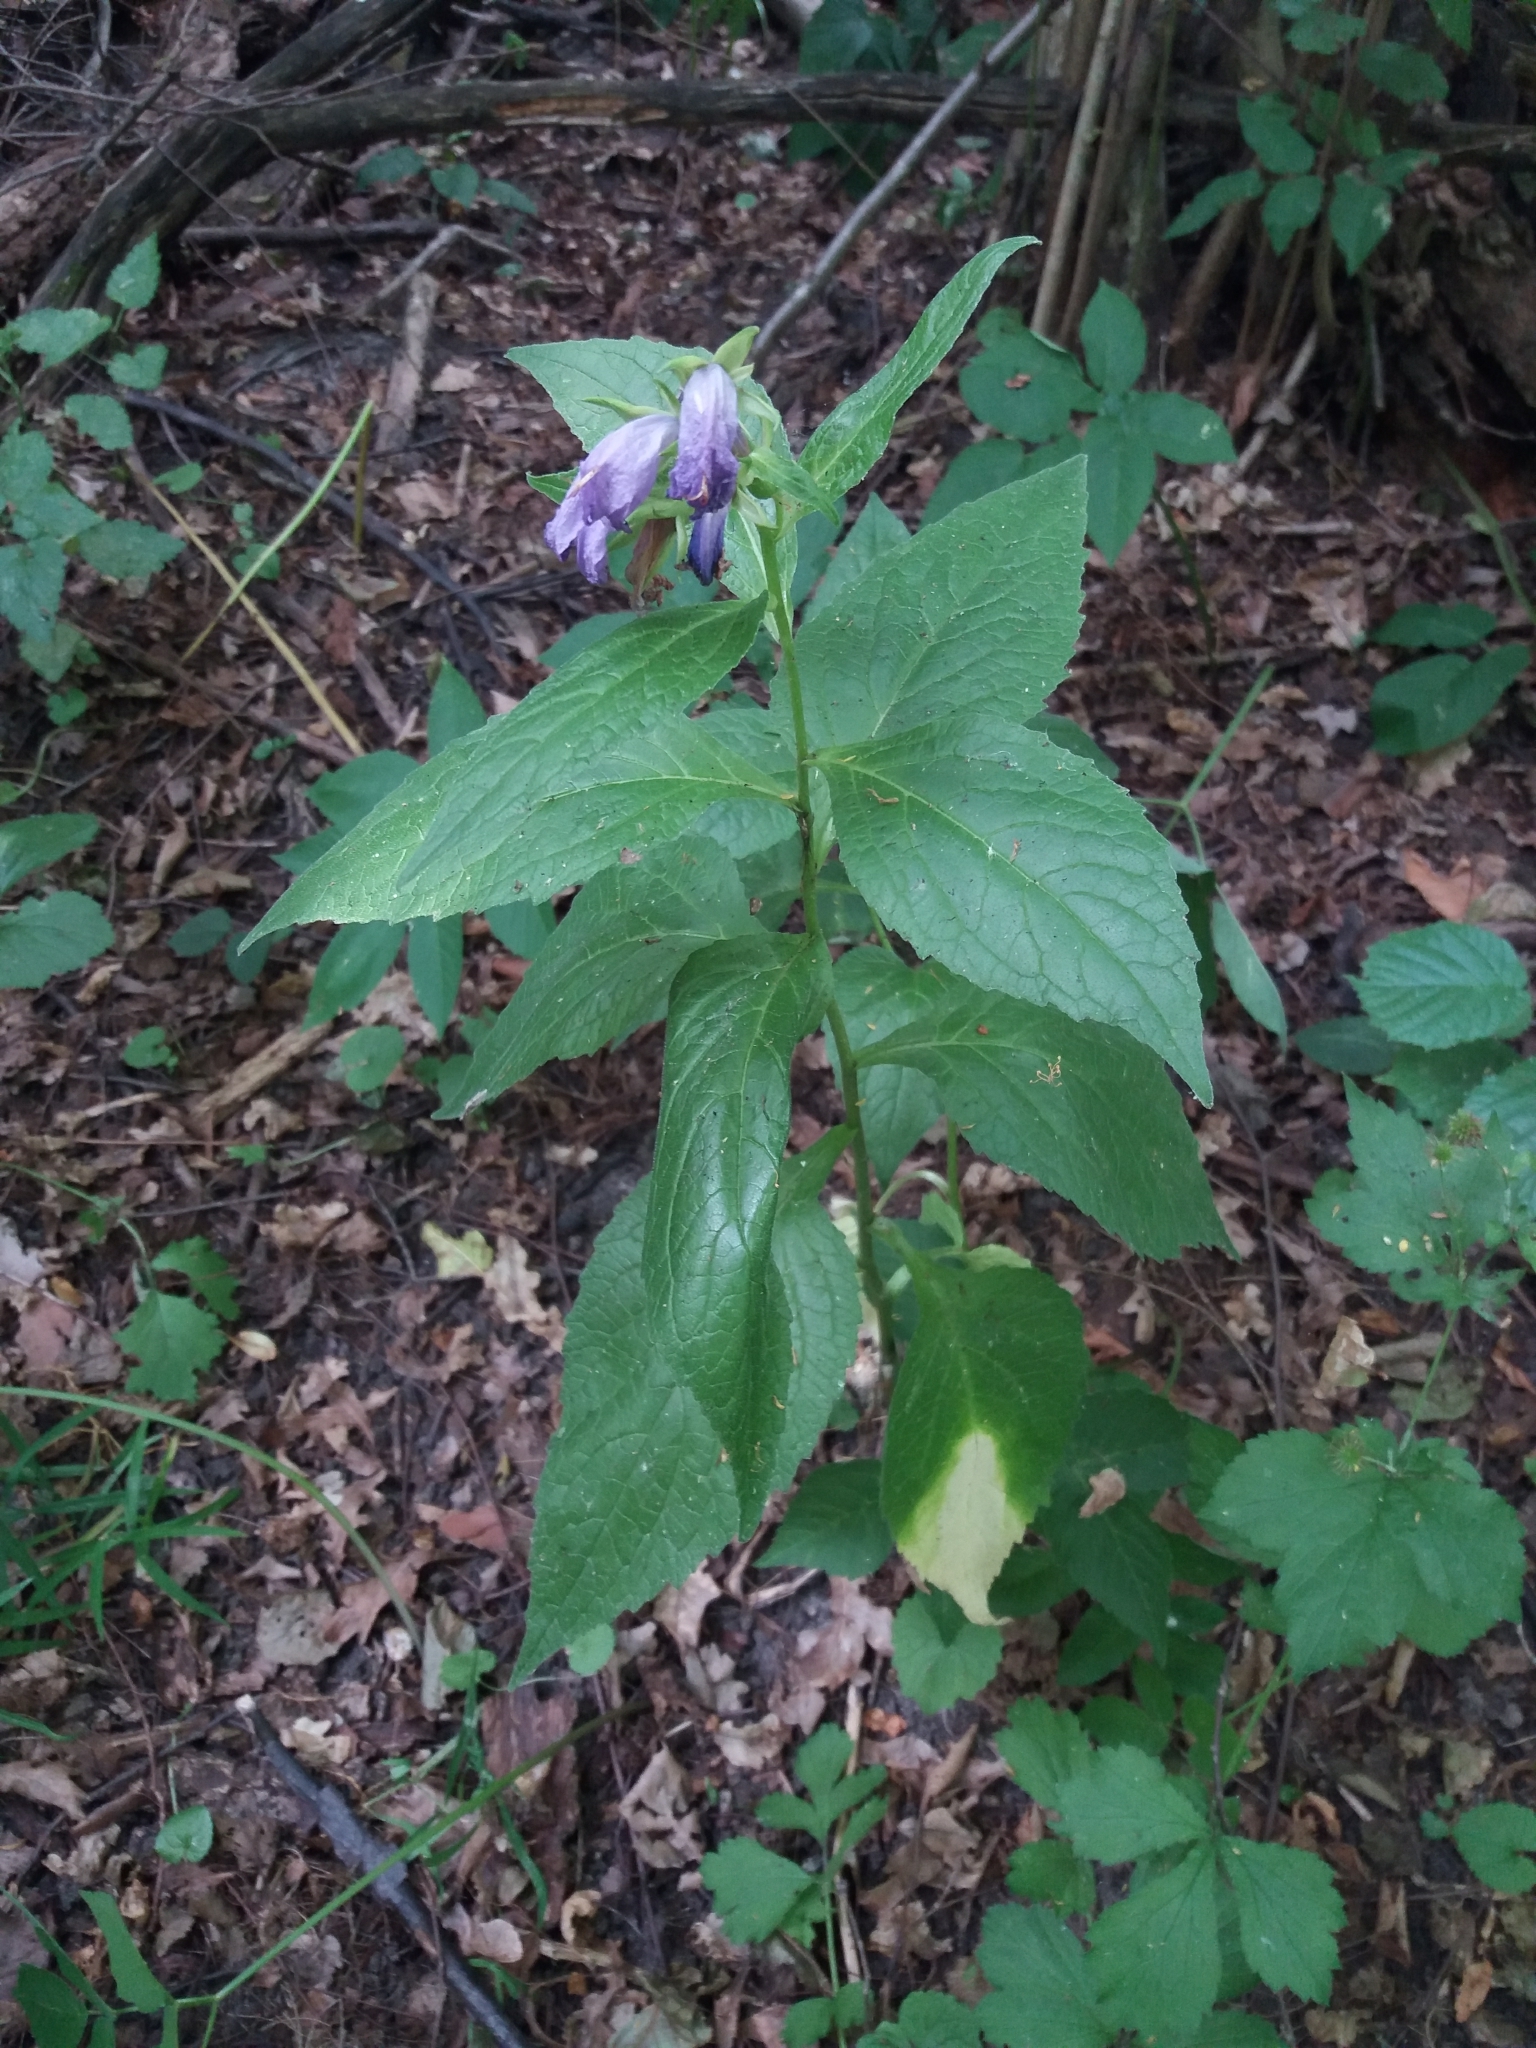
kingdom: Plantae
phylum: Tracheophyta
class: Magnoliopsida
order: Asterales
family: Campanulaceae
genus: Campanula
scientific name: Campanula latifolia
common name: Giant bellflower
